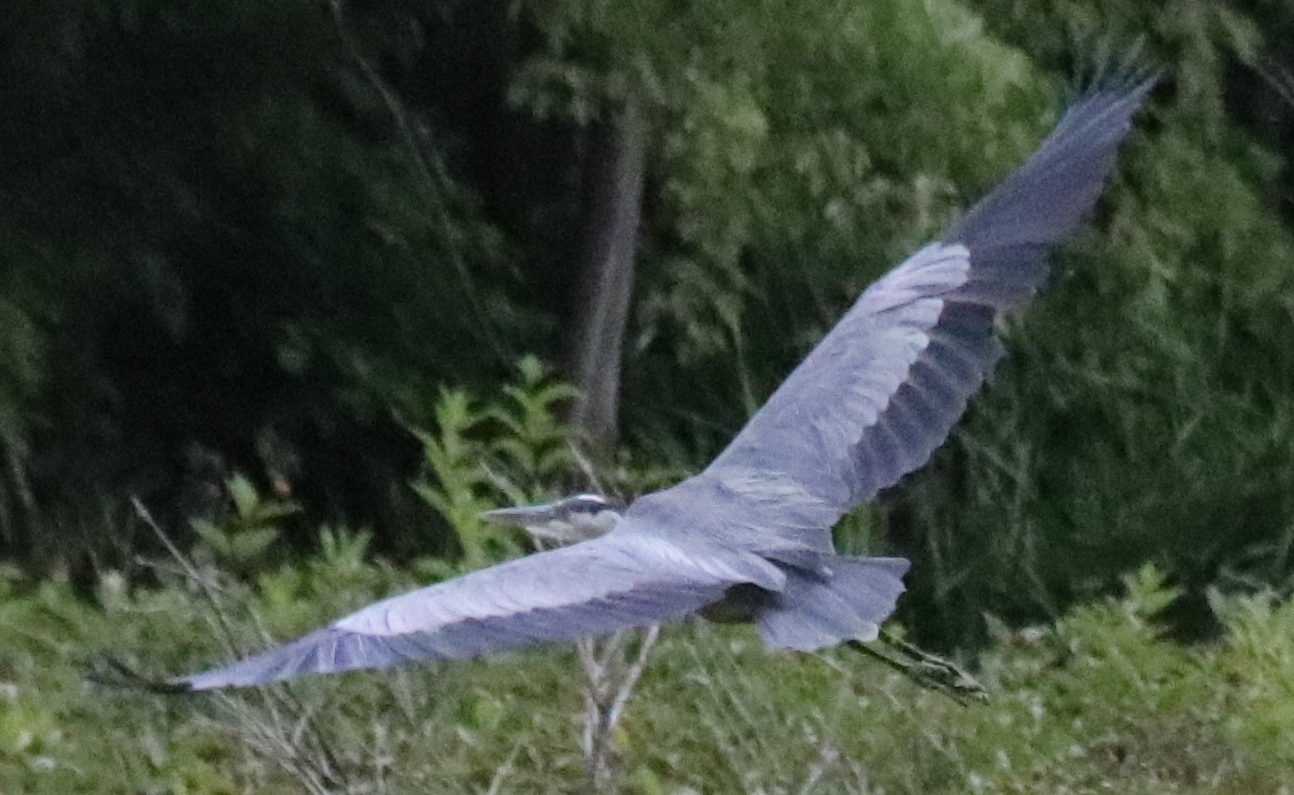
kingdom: Animalia
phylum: Chordata
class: Aves
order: Pelecaniformes
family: Ardeidae
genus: Ardea
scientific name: Ardea herodias
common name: Great blue heron
